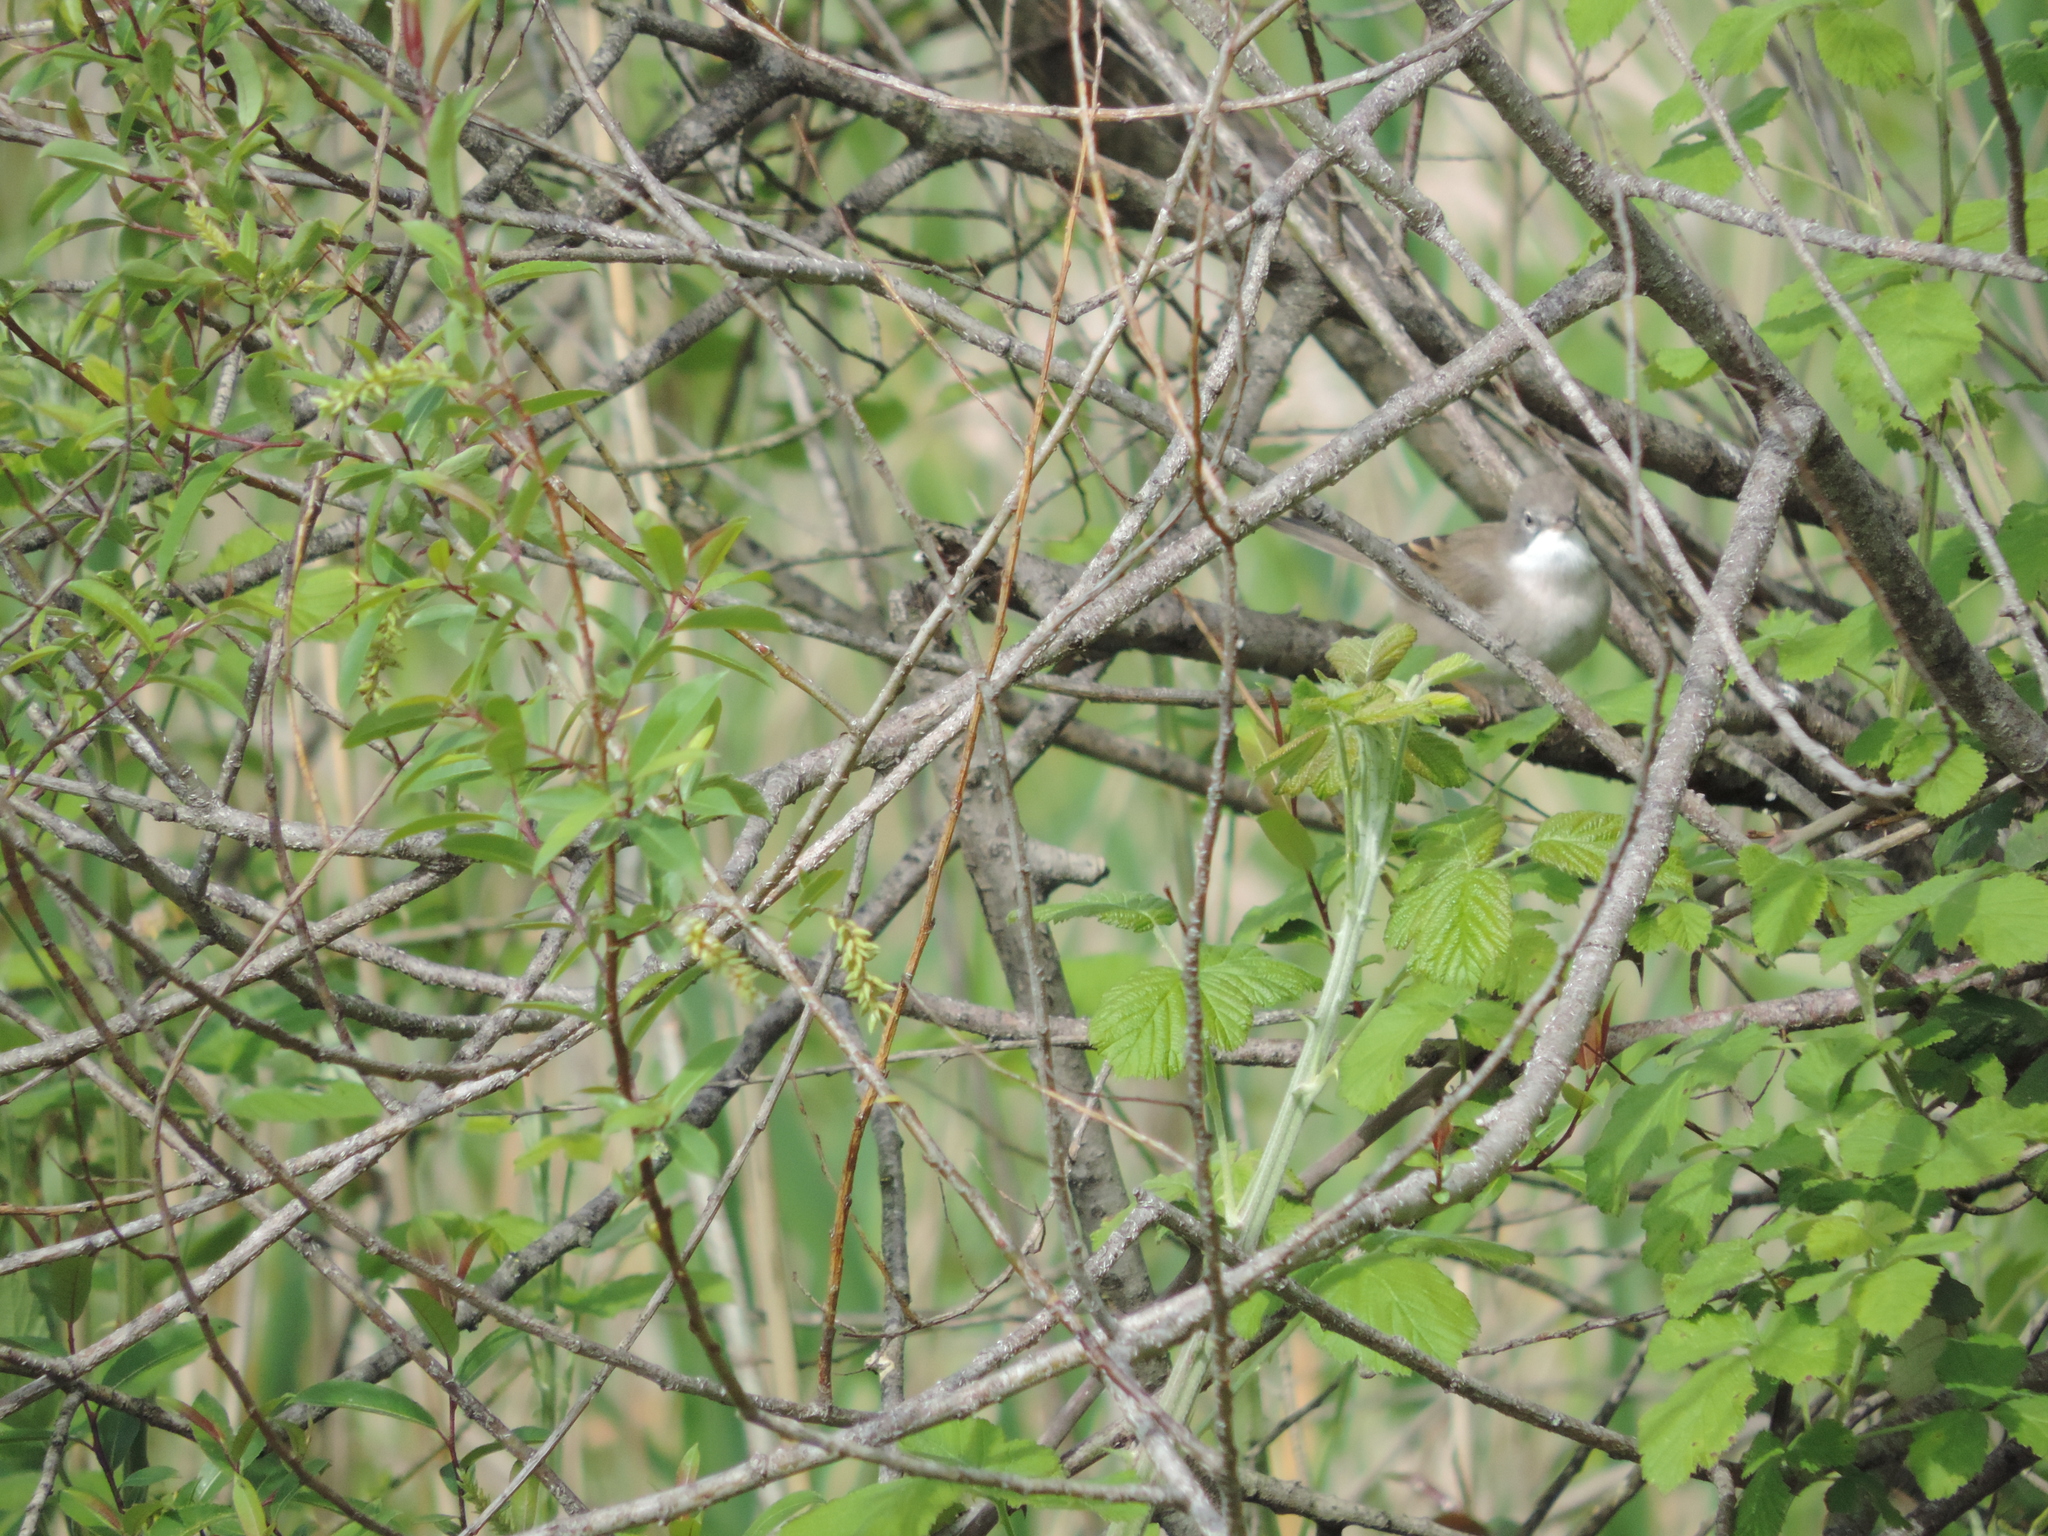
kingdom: Animalia
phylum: Chordata
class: Aves
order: Passeriformes
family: Sylviidae
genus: Sylvia
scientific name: Sylvia communis
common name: Common whitethroat
